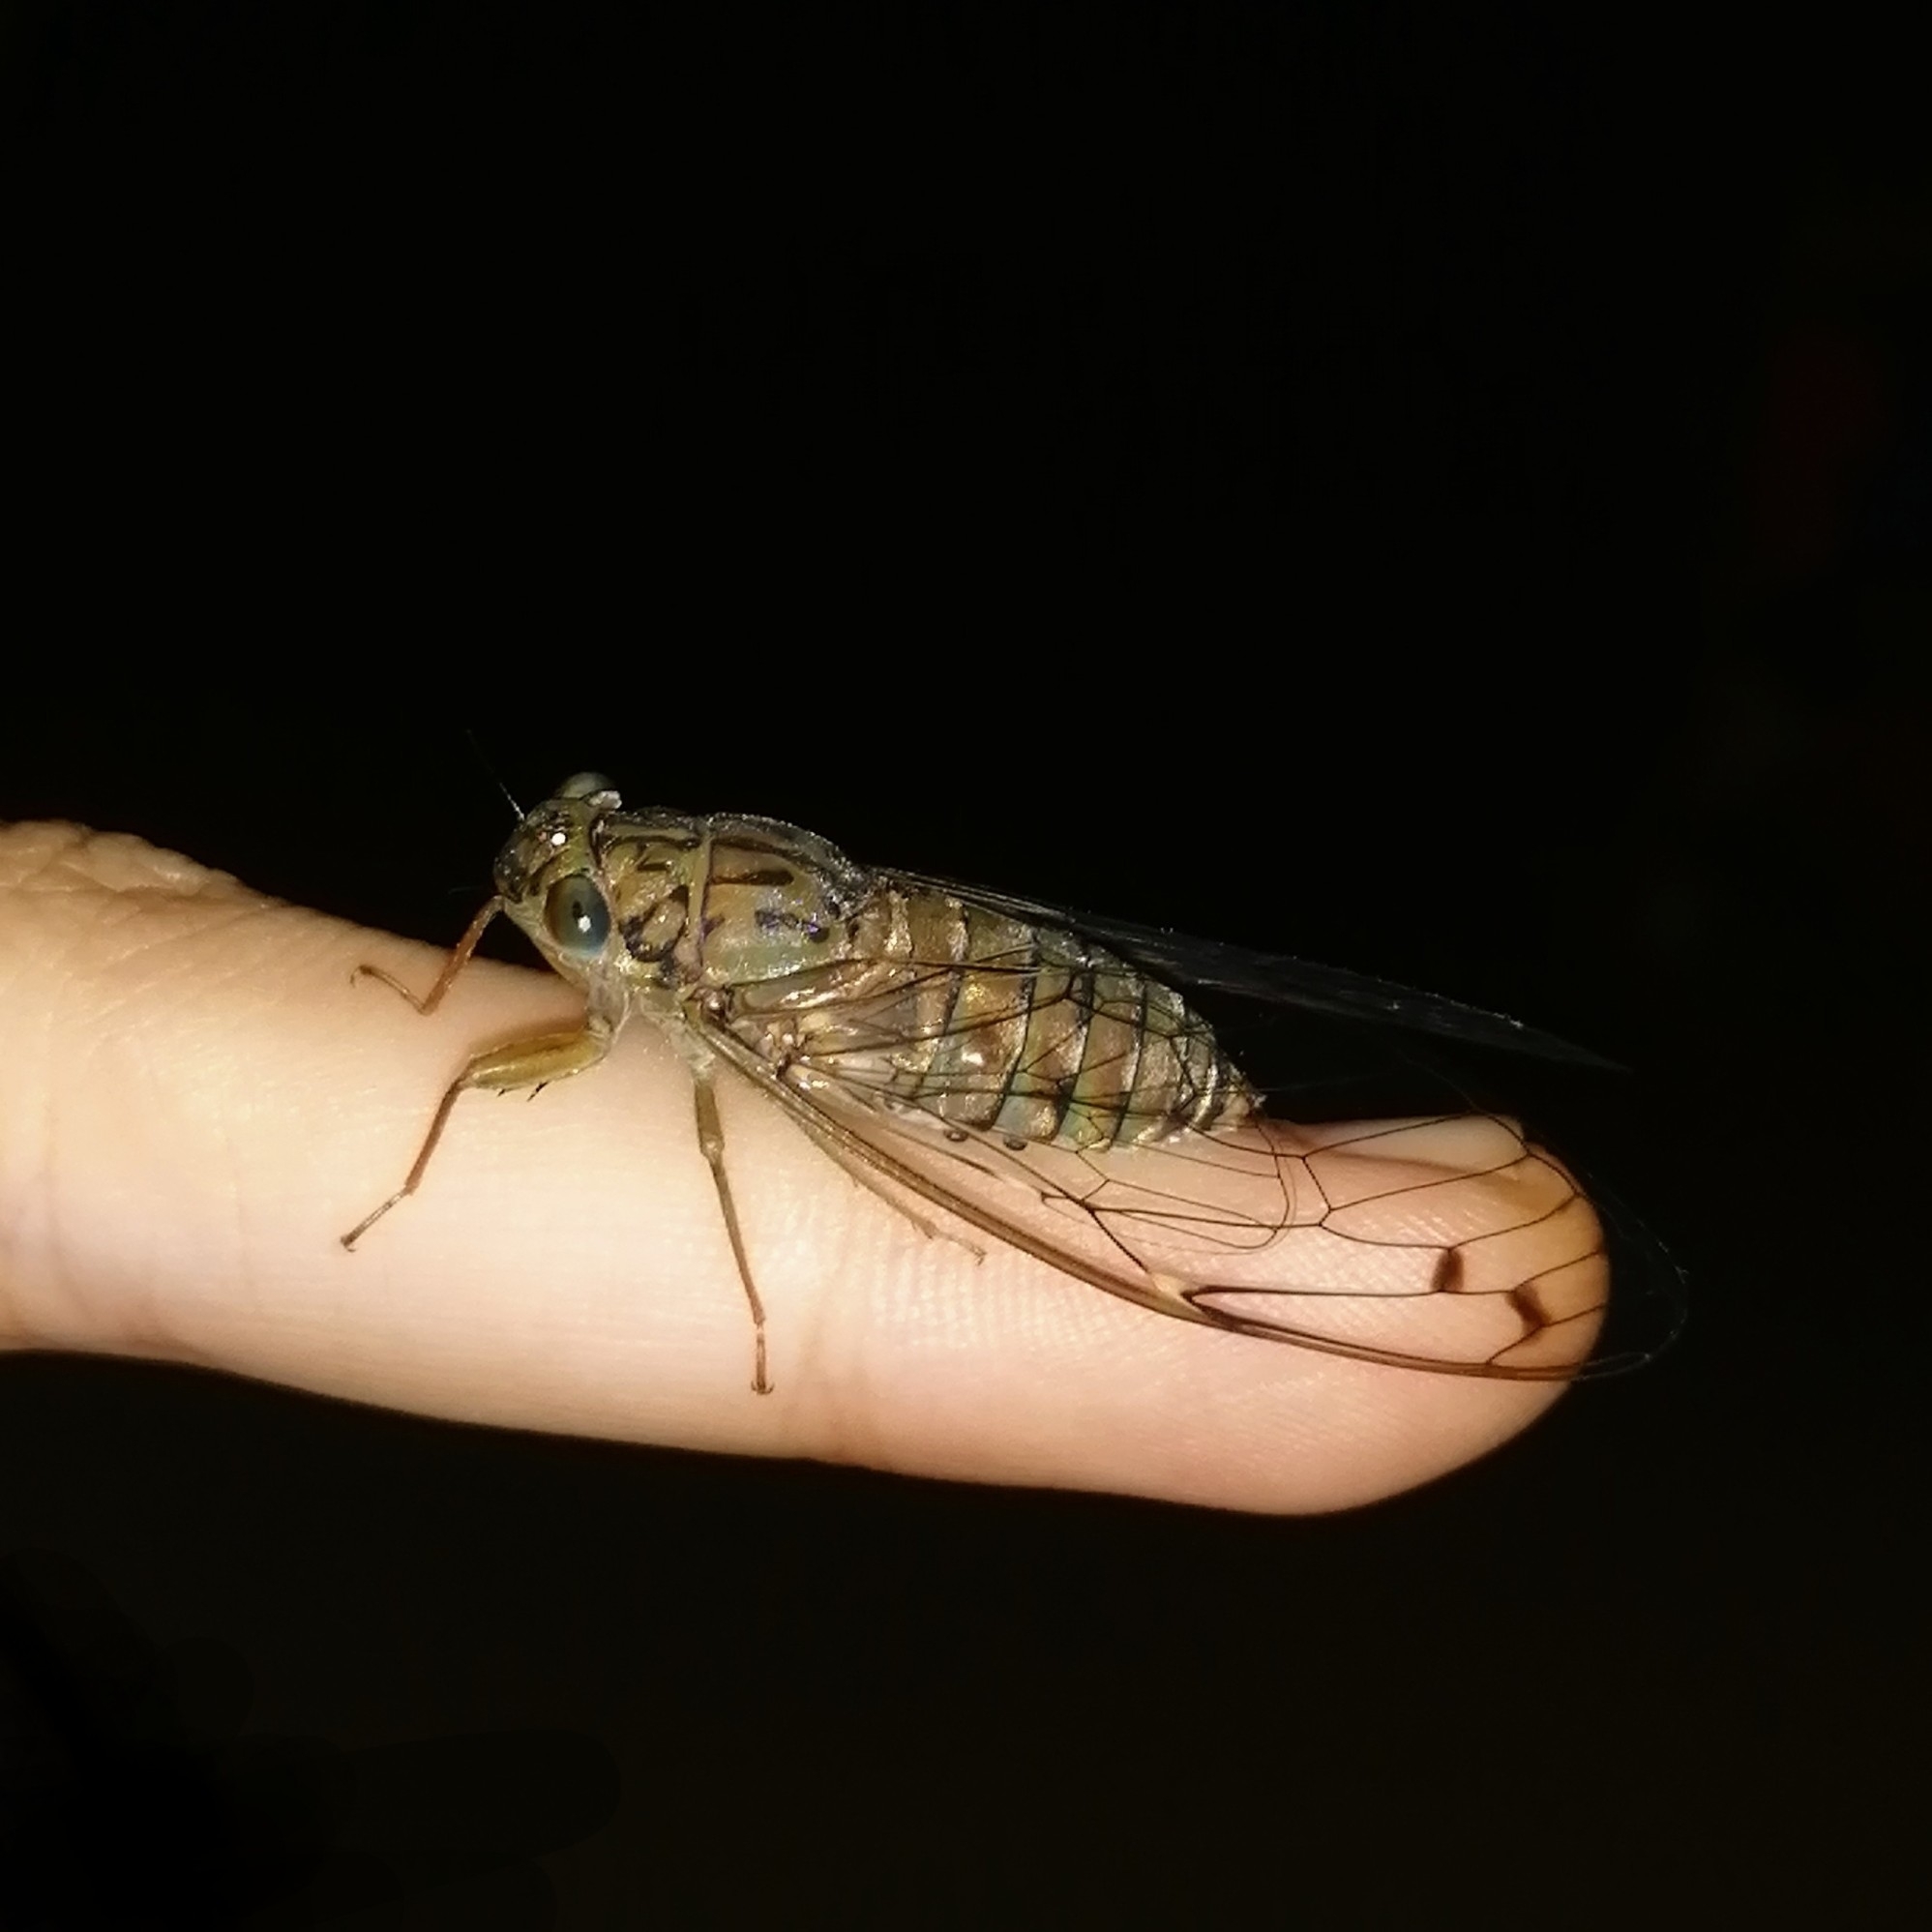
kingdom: Animalia
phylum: Arthropoda
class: Insecta
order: Hemiptera
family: Cicadidae
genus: Purana
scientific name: Purana tigrina
